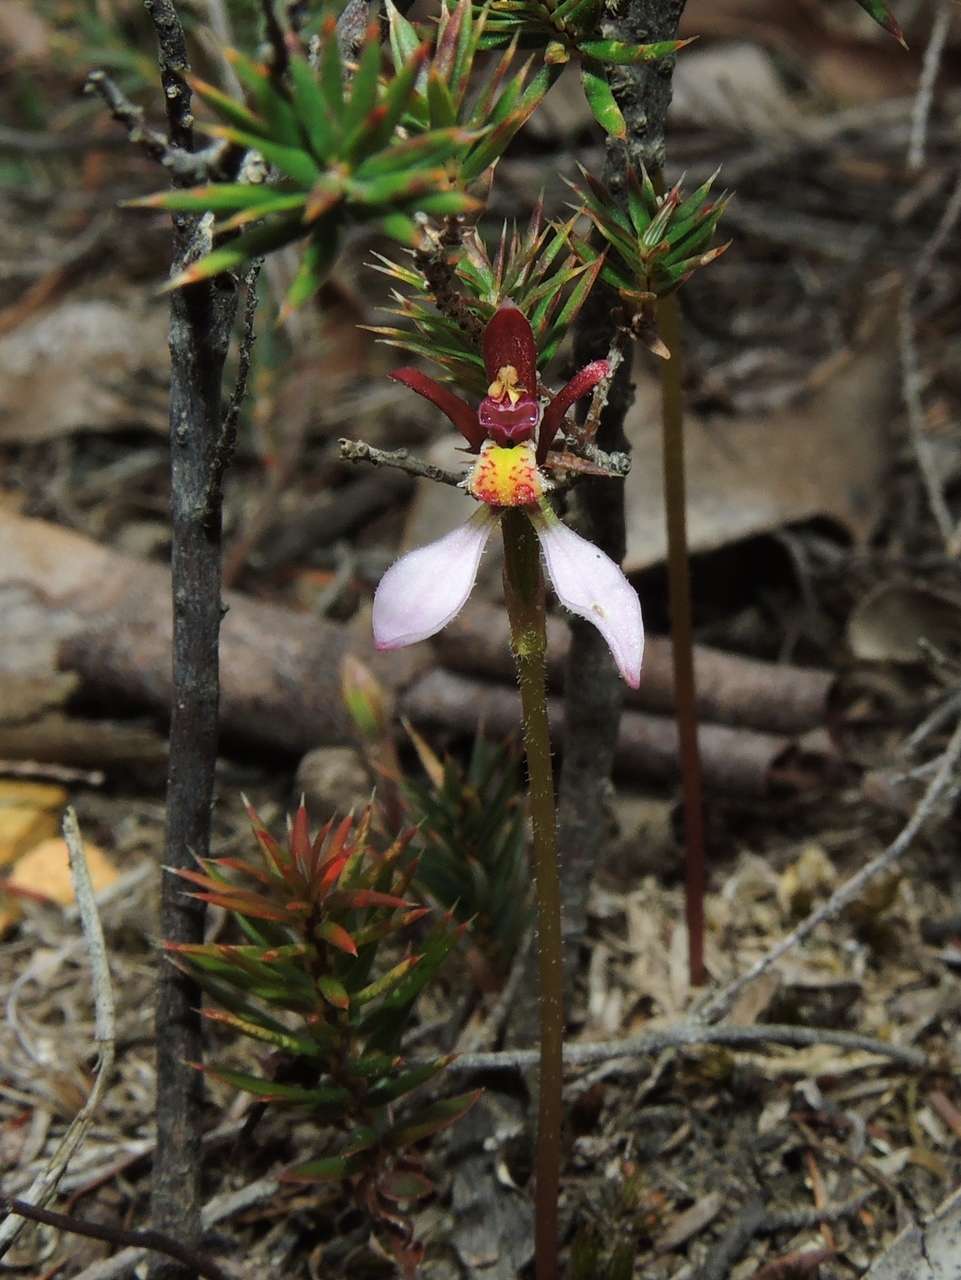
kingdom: Plantae
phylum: Tracheophyta
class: Liliopsida
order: Asparagales
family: Orchidaceae
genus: Eriochilus
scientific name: Eriochilus cucullatus
